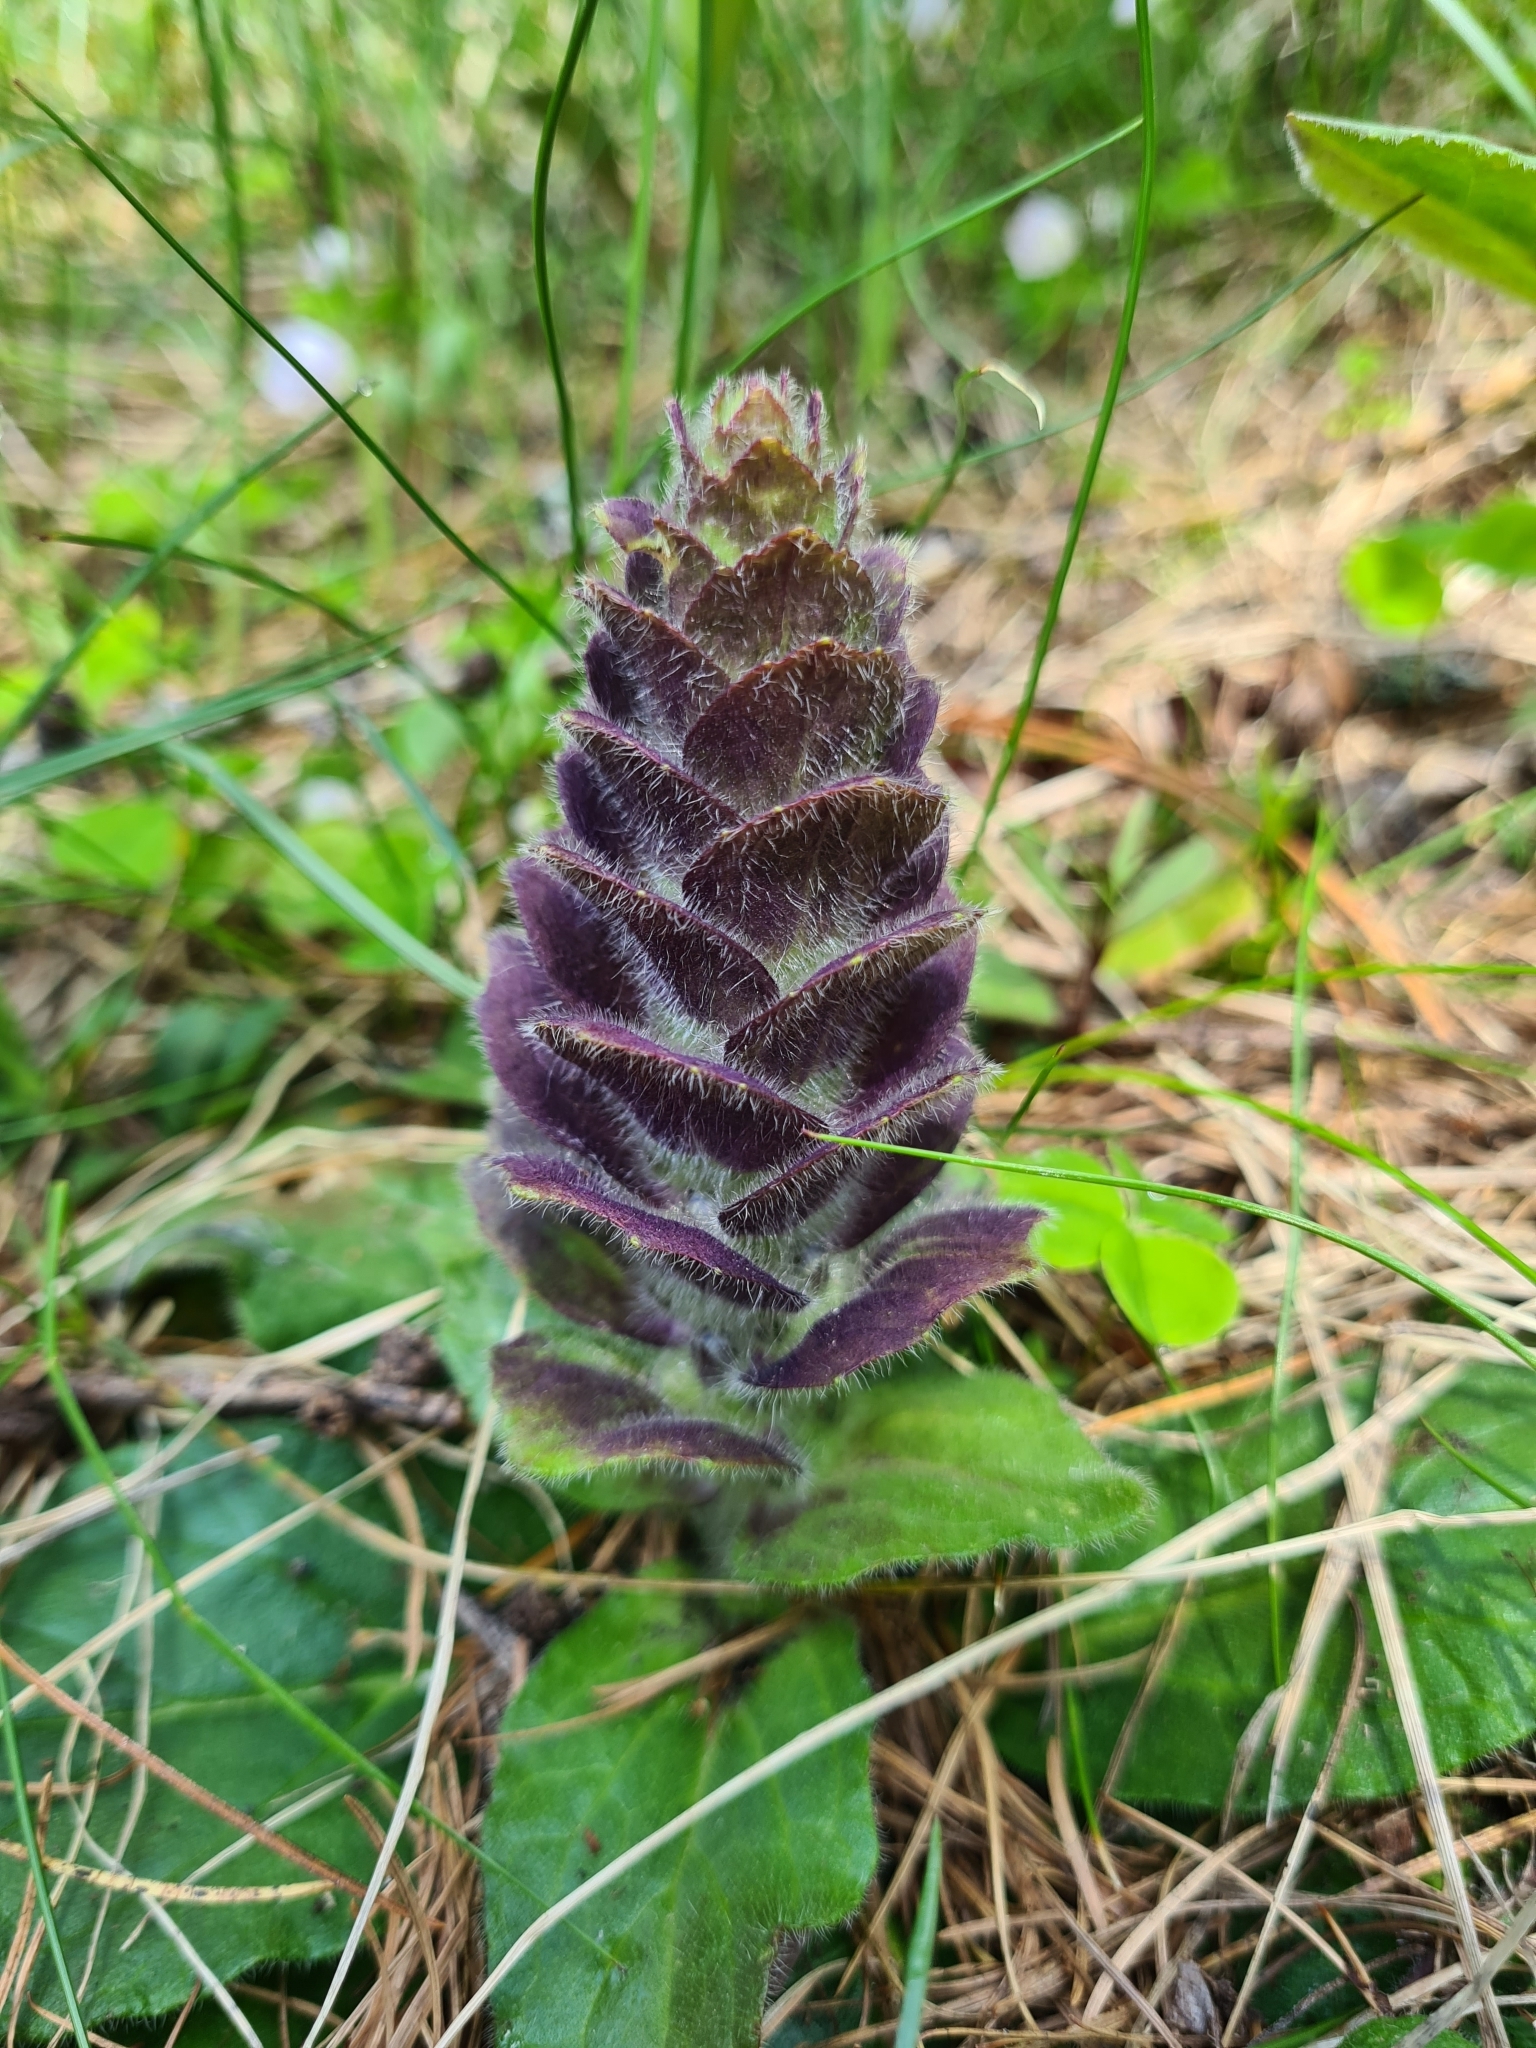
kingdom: Plantae
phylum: Tracheophyta
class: Magnoliopsida
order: Lamiales
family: Lamiaceae
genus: Ajuga
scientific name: Ajuga pyramidalis
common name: Pyramid bugle
